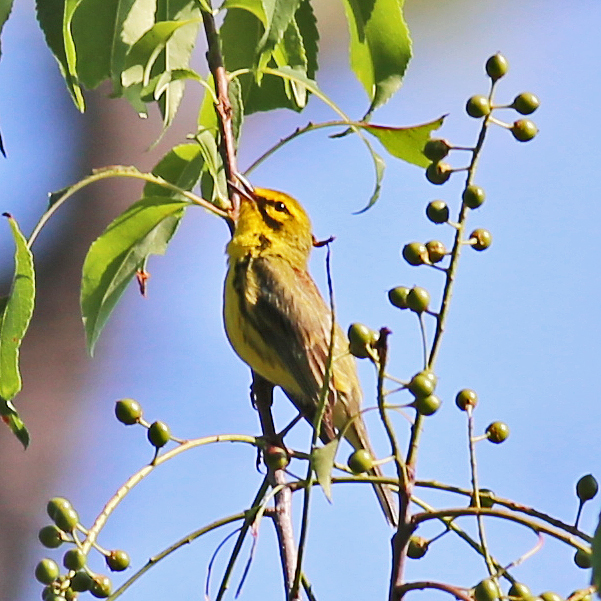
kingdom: Animalia
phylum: Chordata
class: Aves
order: Passeriformes
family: Parulidae
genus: Setophaga
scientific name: Setophaga discolor
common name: Prairie warbler
